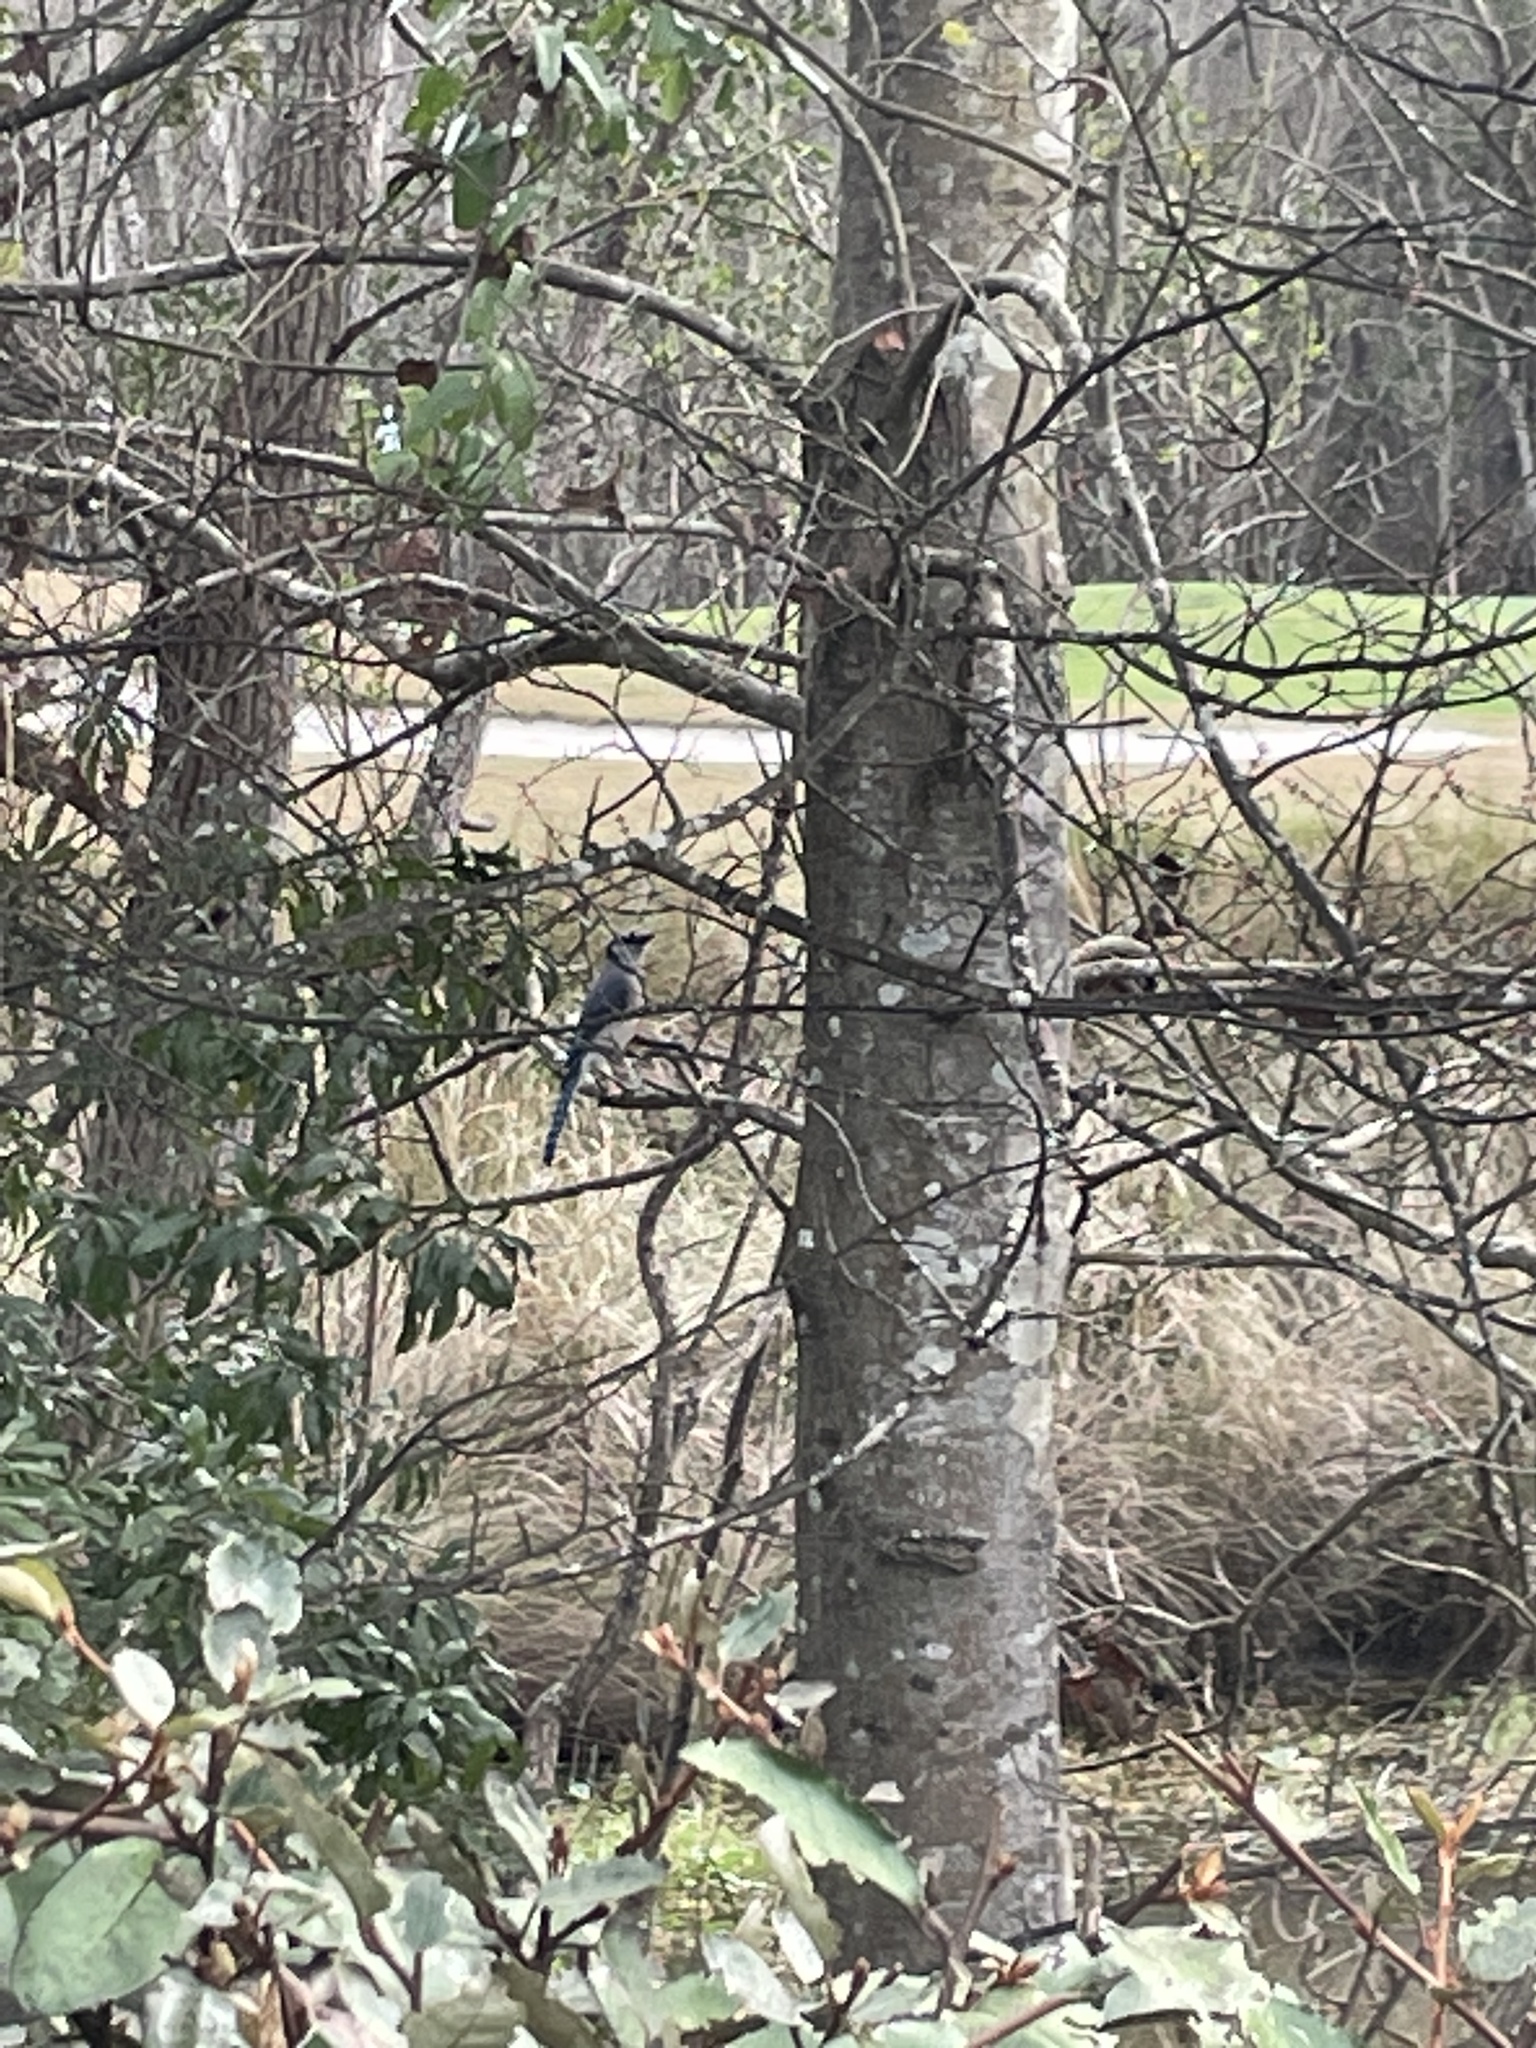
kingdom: Animalia
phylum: Chordata
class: Aves
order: Passeriformes
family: Corvidae
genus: Cyanocitta
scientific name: Cyanocitta cristata
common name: Blue jay
